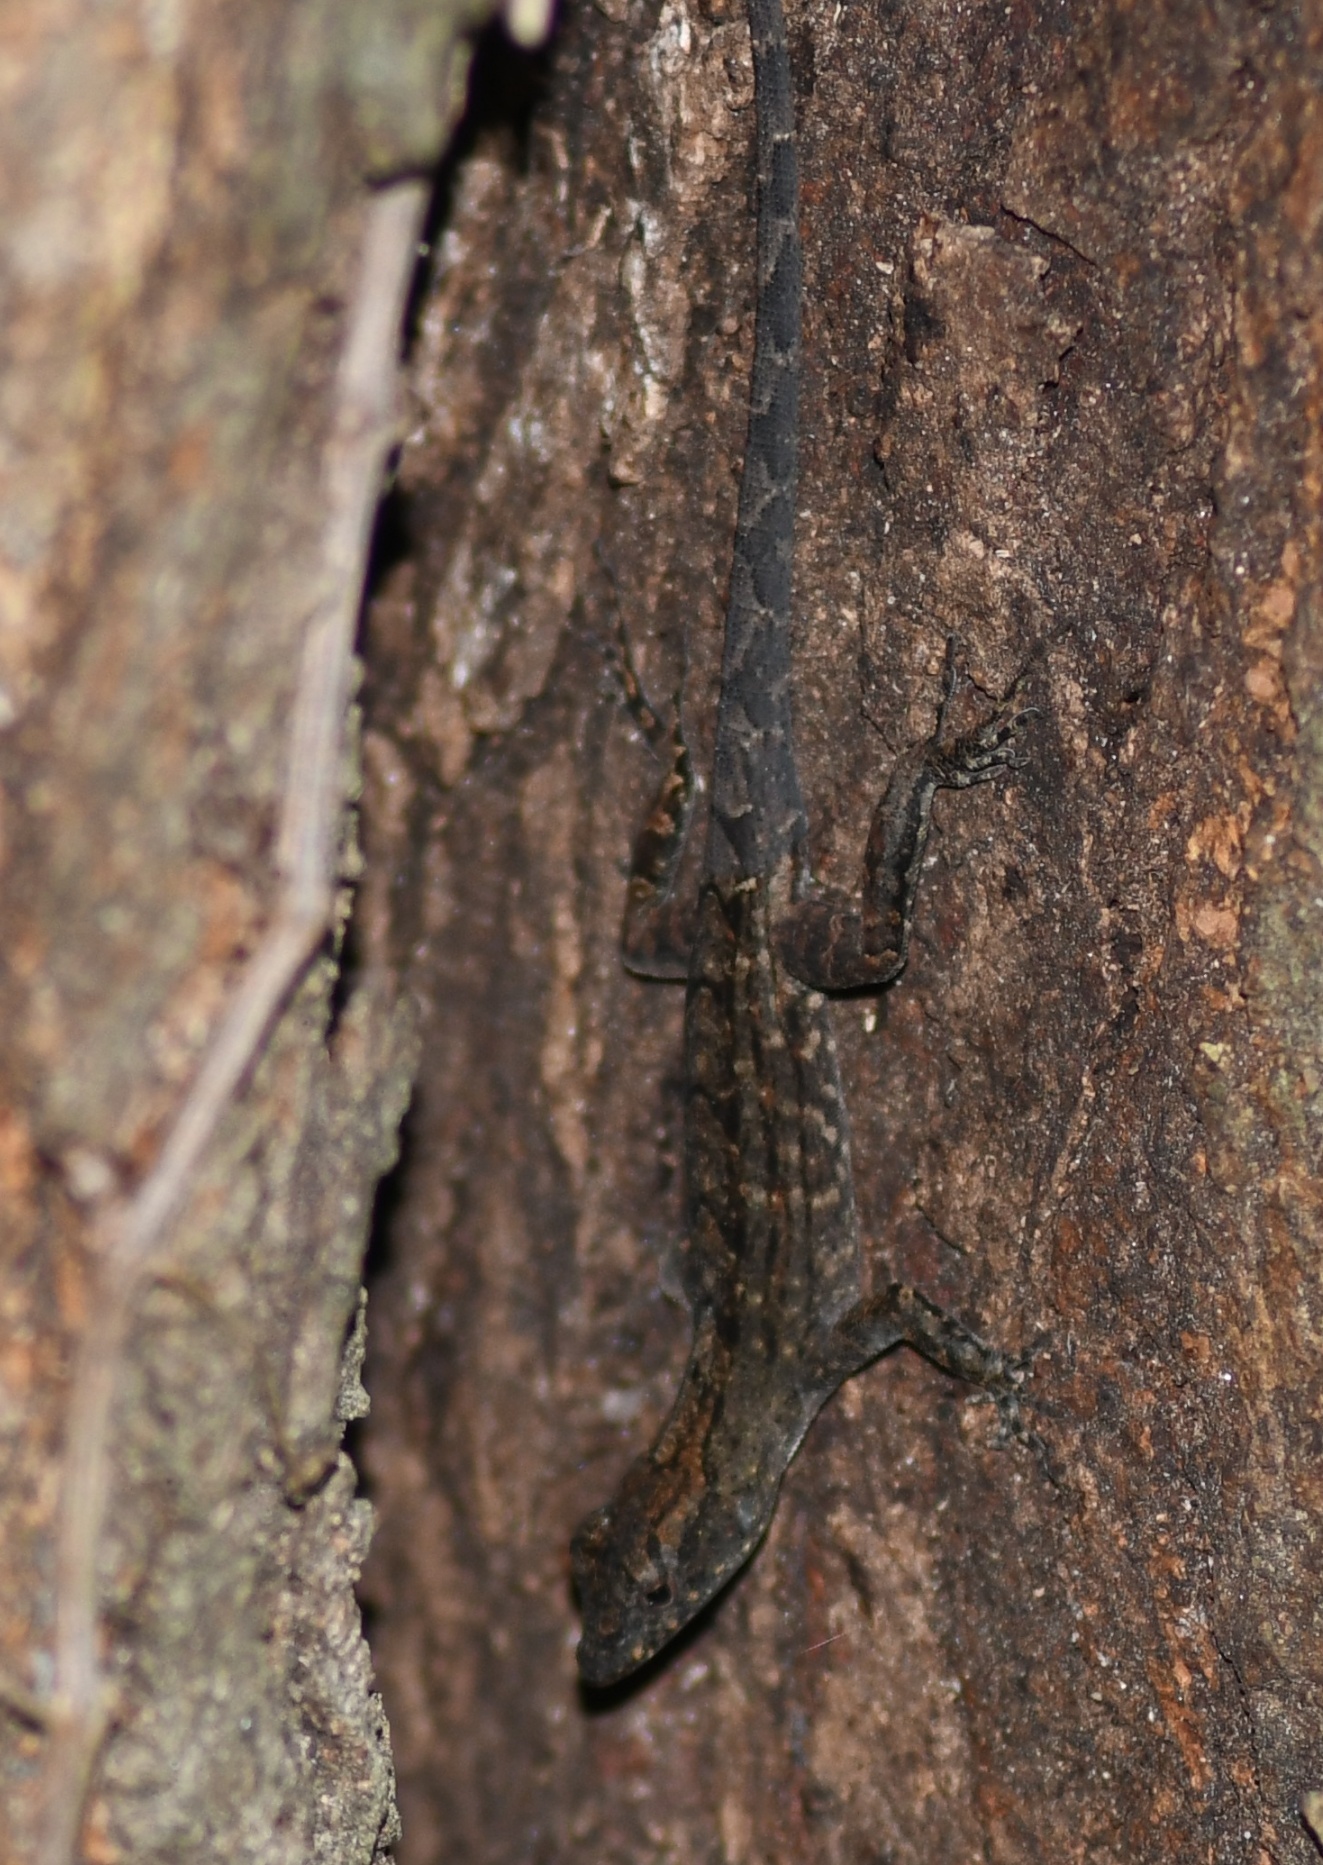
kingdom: Animalia
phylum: Chordata
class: Squamata
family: Dactyloidae
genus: Anolis
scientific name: Anolis sagrei
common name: Brown anole
